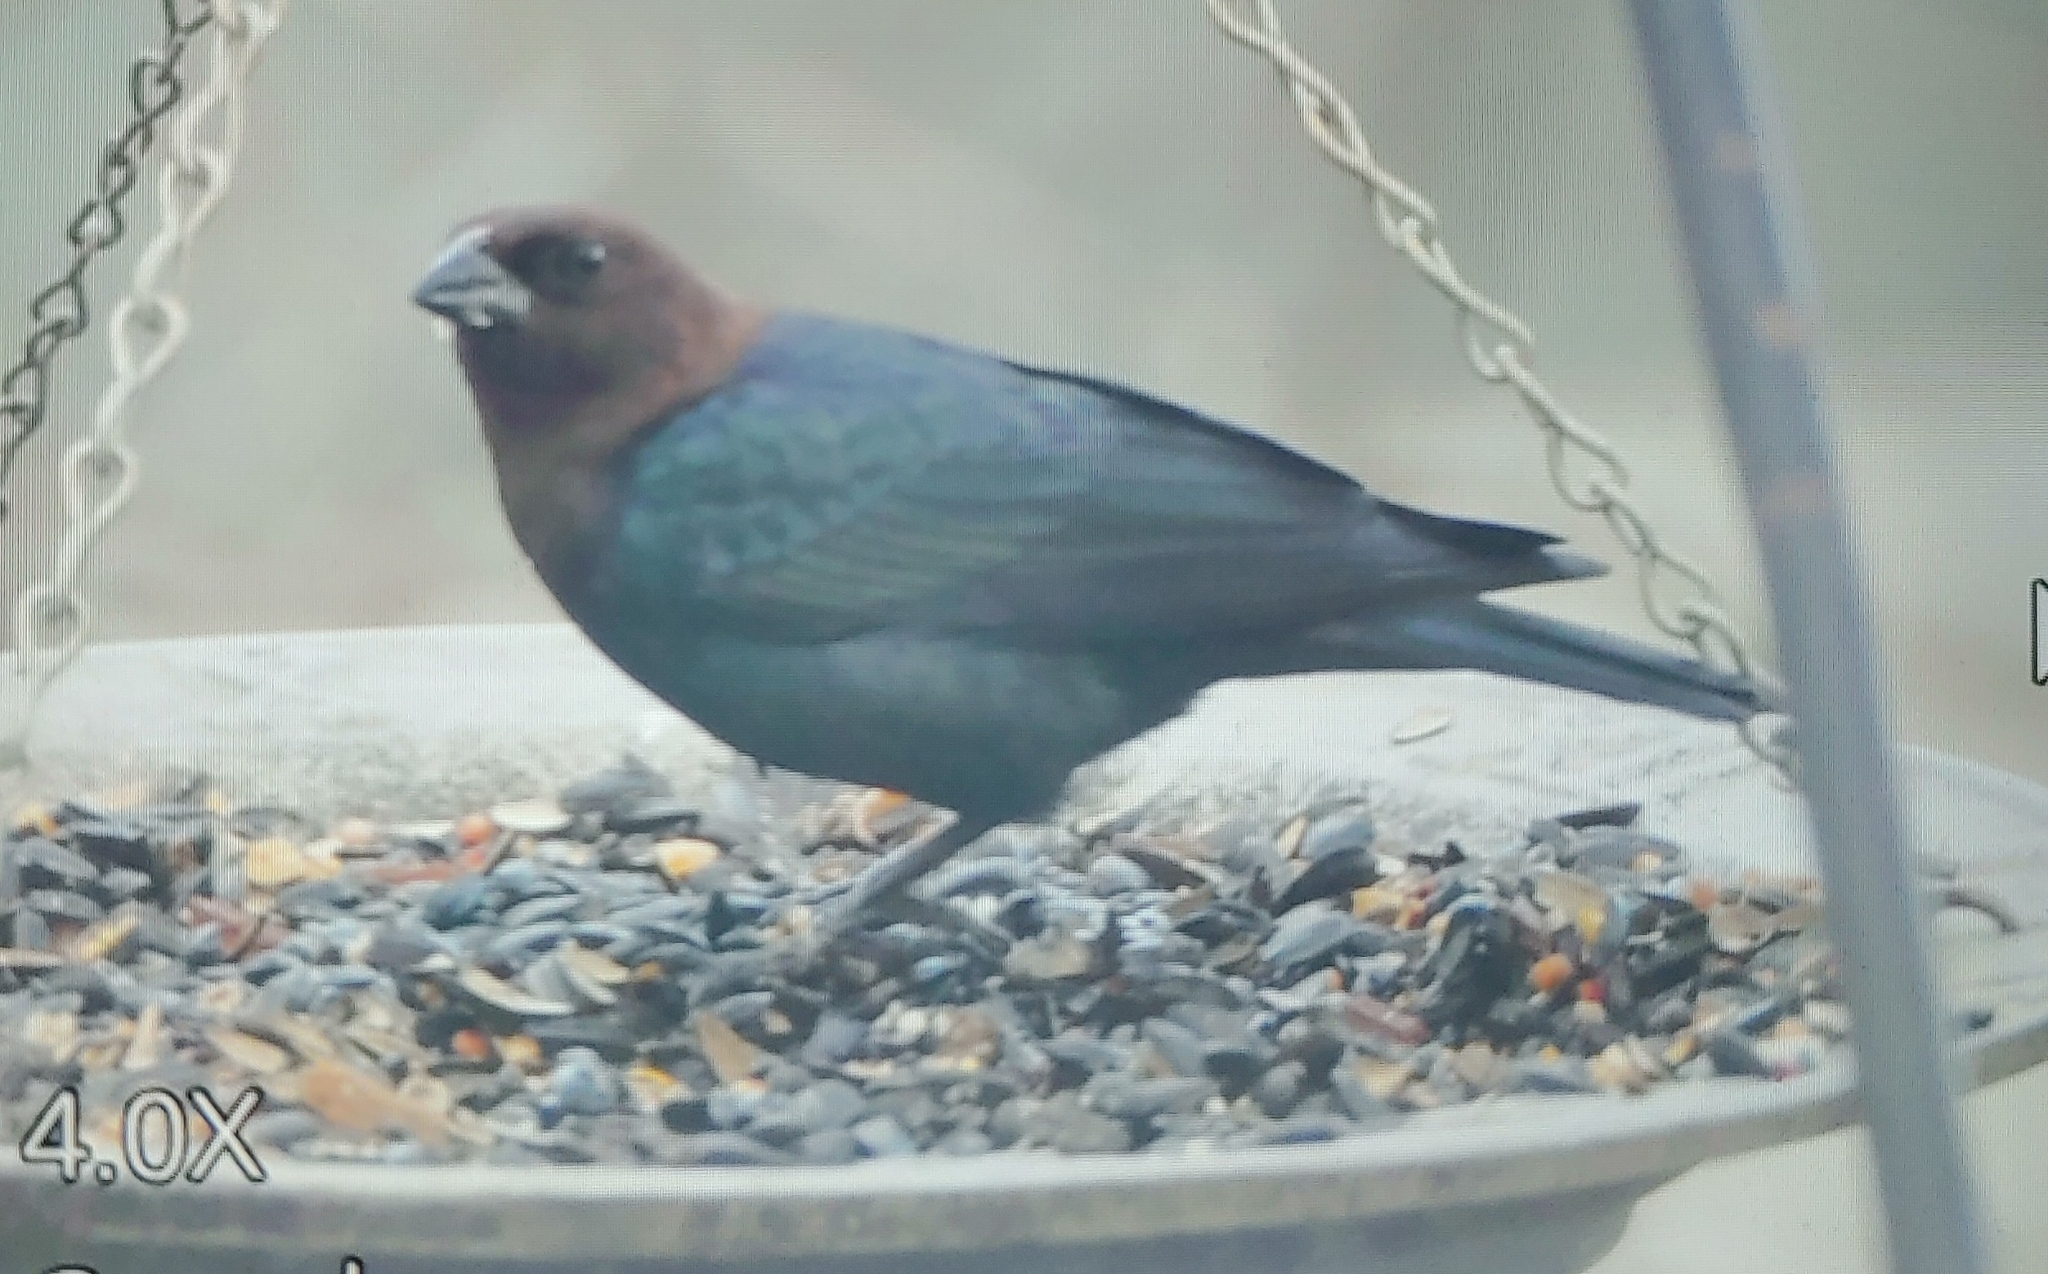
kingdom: Animalia
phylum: Chordata
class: Aves
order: Passeriformes
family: Icteridae
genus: Molothrus
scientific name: Molothrus ater
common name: Brown-headed cowbird
